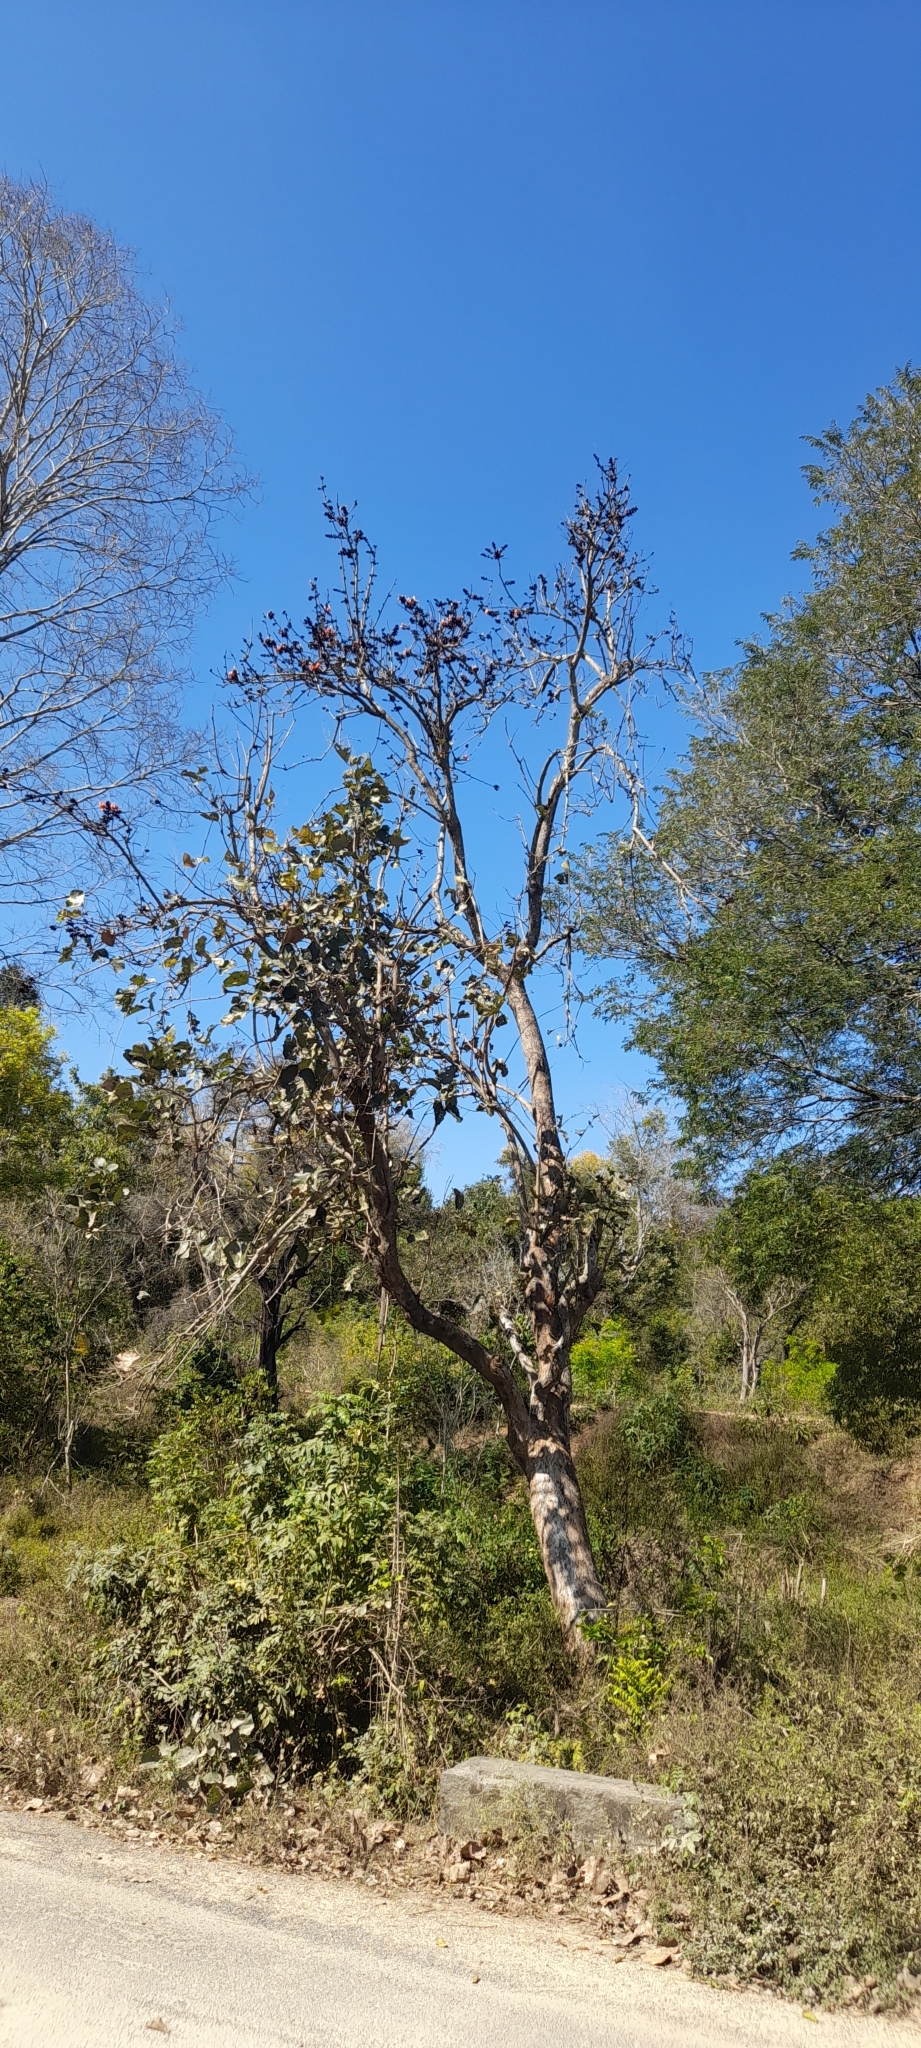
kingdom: Plantae
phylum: Tracheophyta
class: Magnoliopsida
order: Fabales
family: Fabaceae
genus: Butea
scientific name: Butea monosperma
